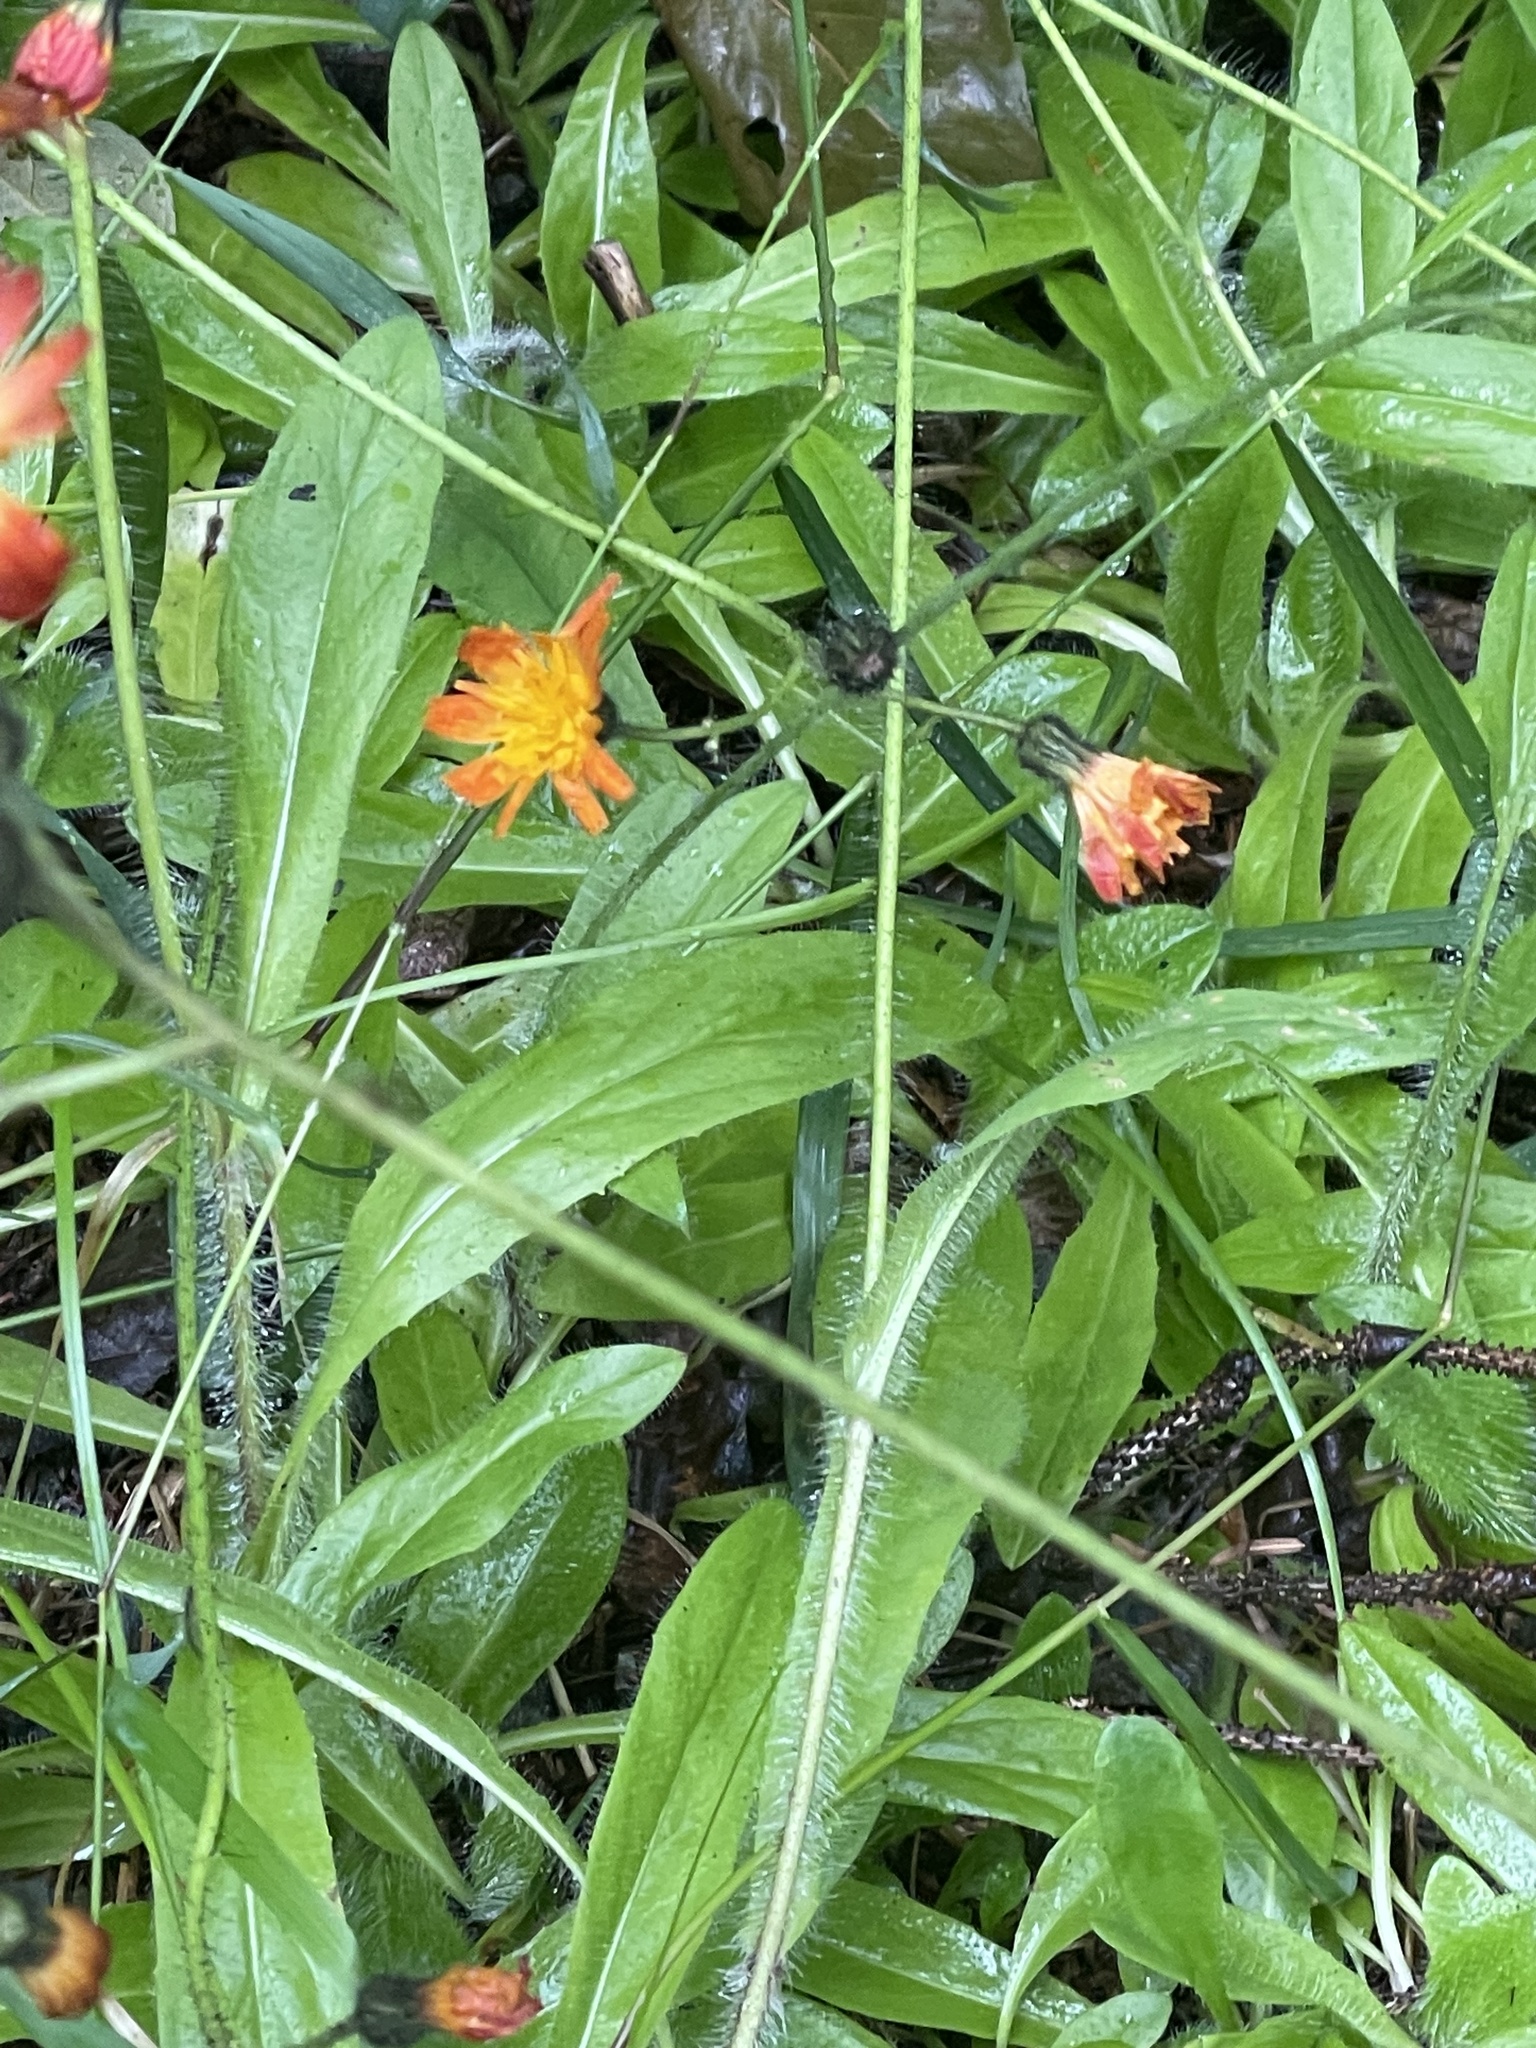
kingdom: Plantae
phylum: Tracheophyta
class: Magnoliopsida
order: Asterales
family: Asteraceae
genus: Pilosella
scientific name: Pilosella aurantiaca
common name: Fox-and-cubs
